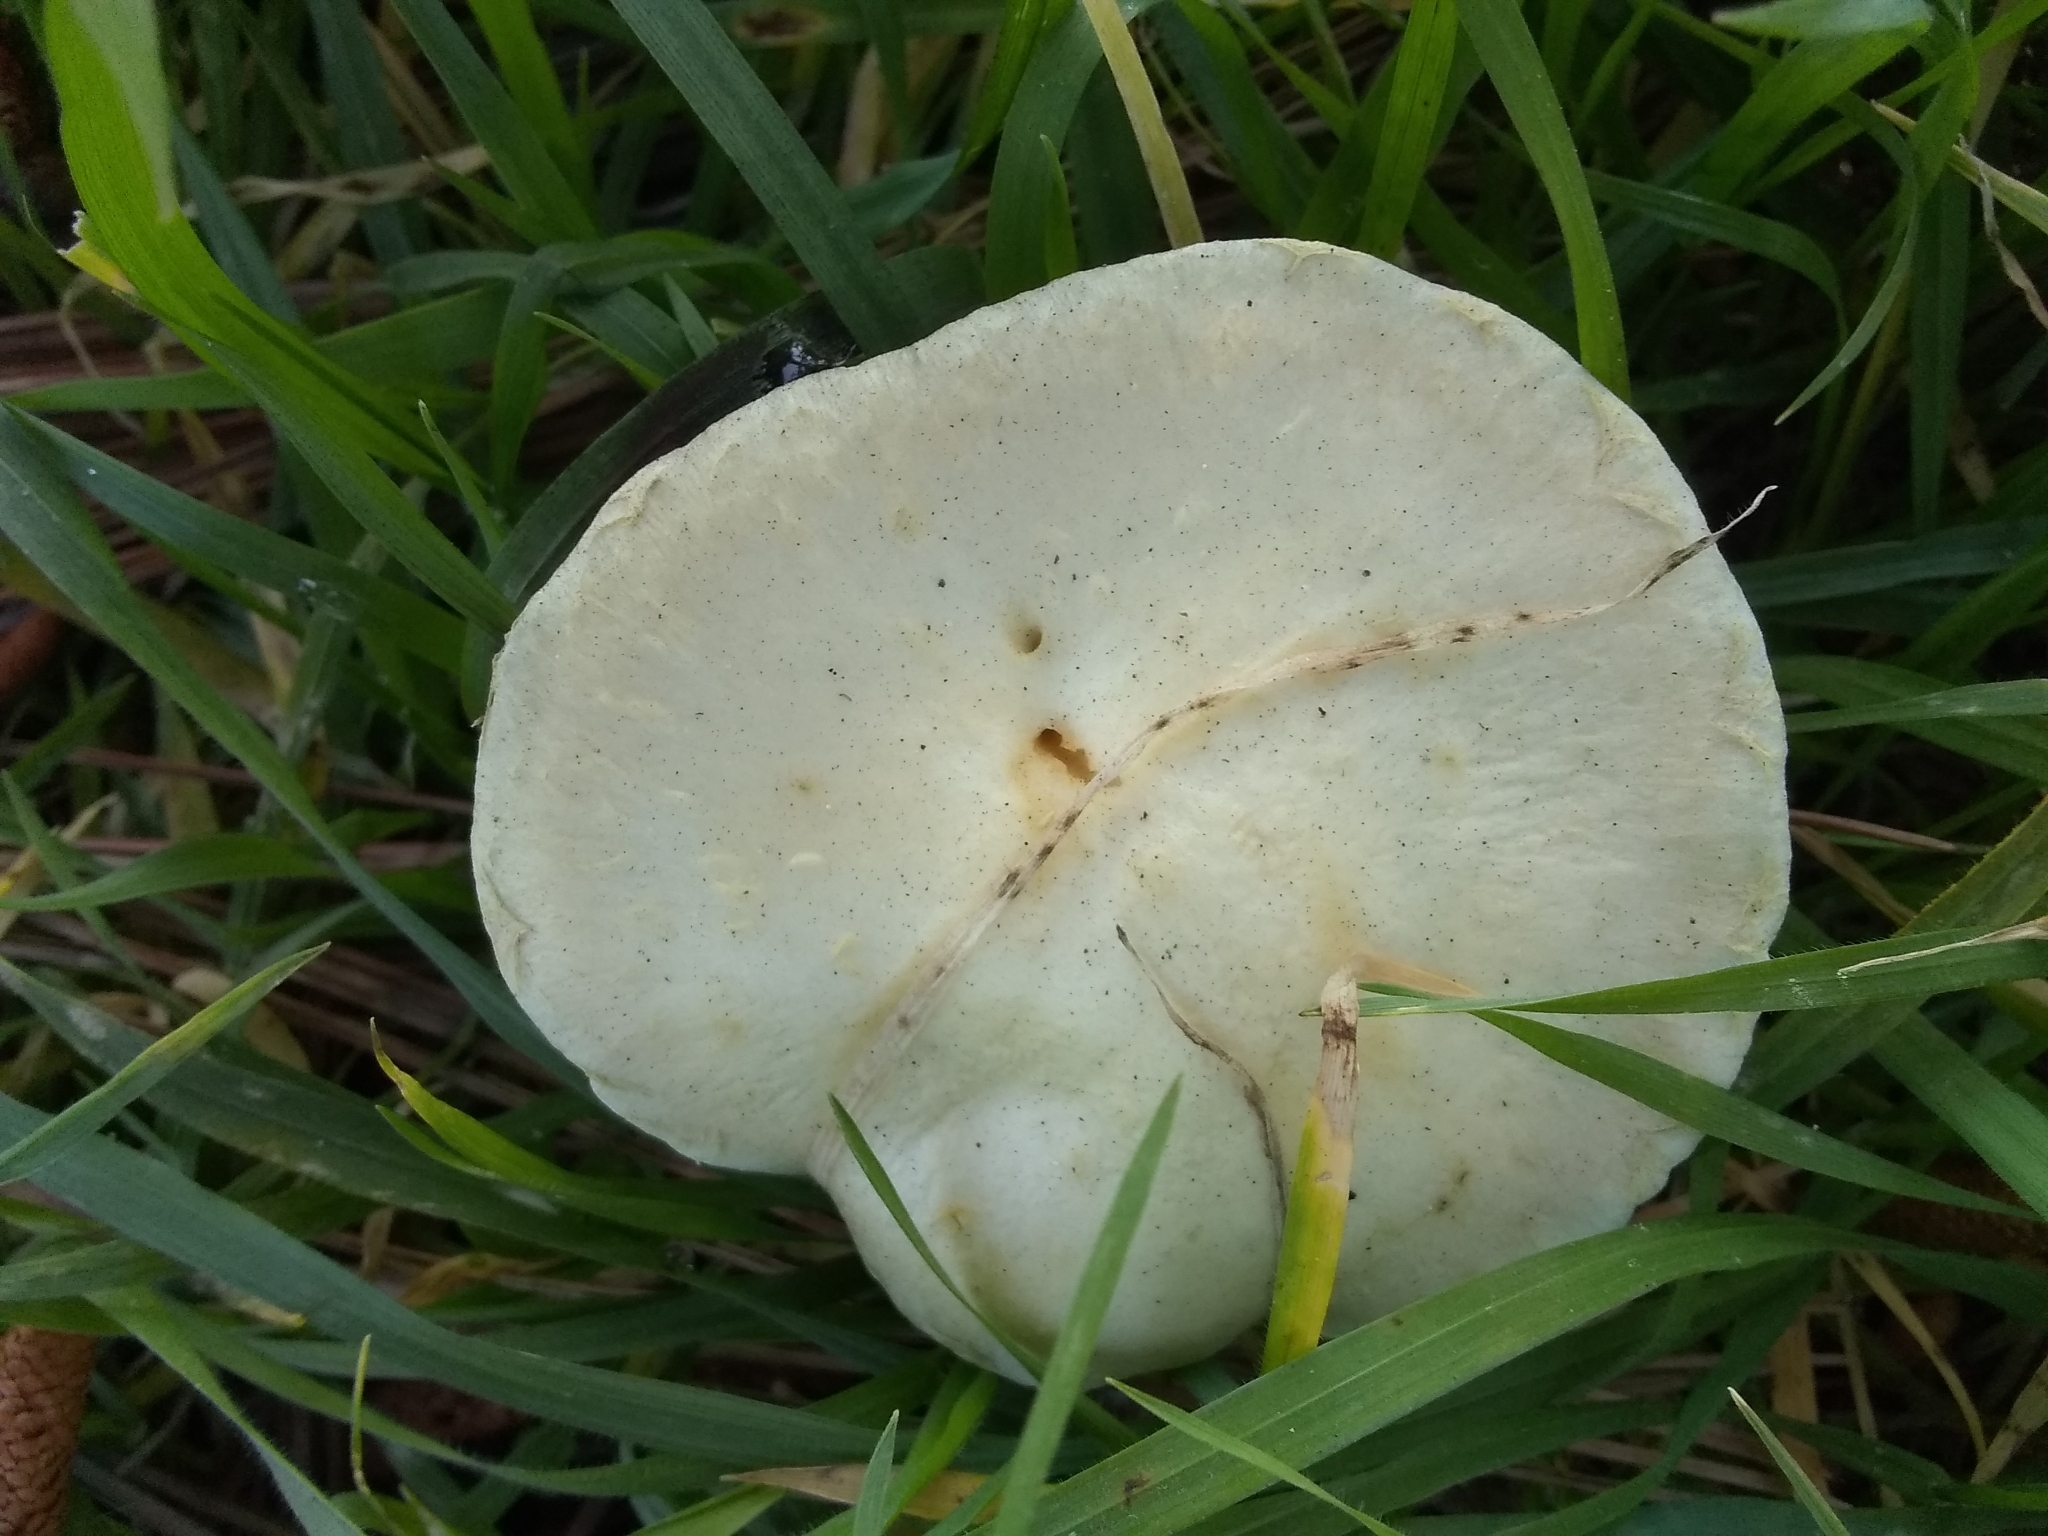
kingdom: Fungi
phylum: Basidiomycota
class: Agaricomycetes
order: Agaricales
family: Strophariaceae
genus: Leratiomyces
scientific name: Leratiomyces percevalii
